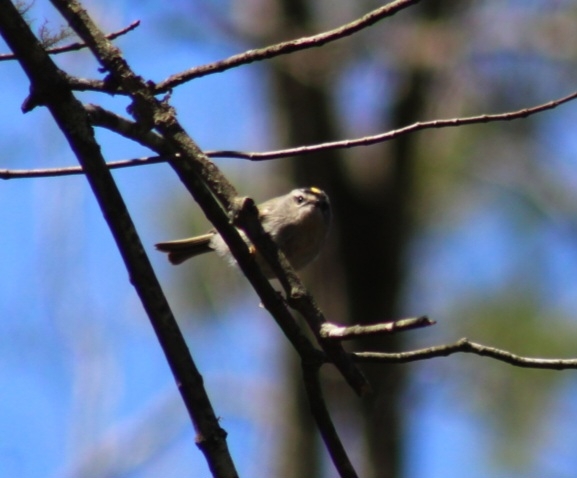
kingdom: Animalia
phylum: Chordata
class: Aves
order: Passeriformes
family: Regulidae
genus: Regulus
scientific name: Regulus satrapa
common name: Golden-crowned kinglet
